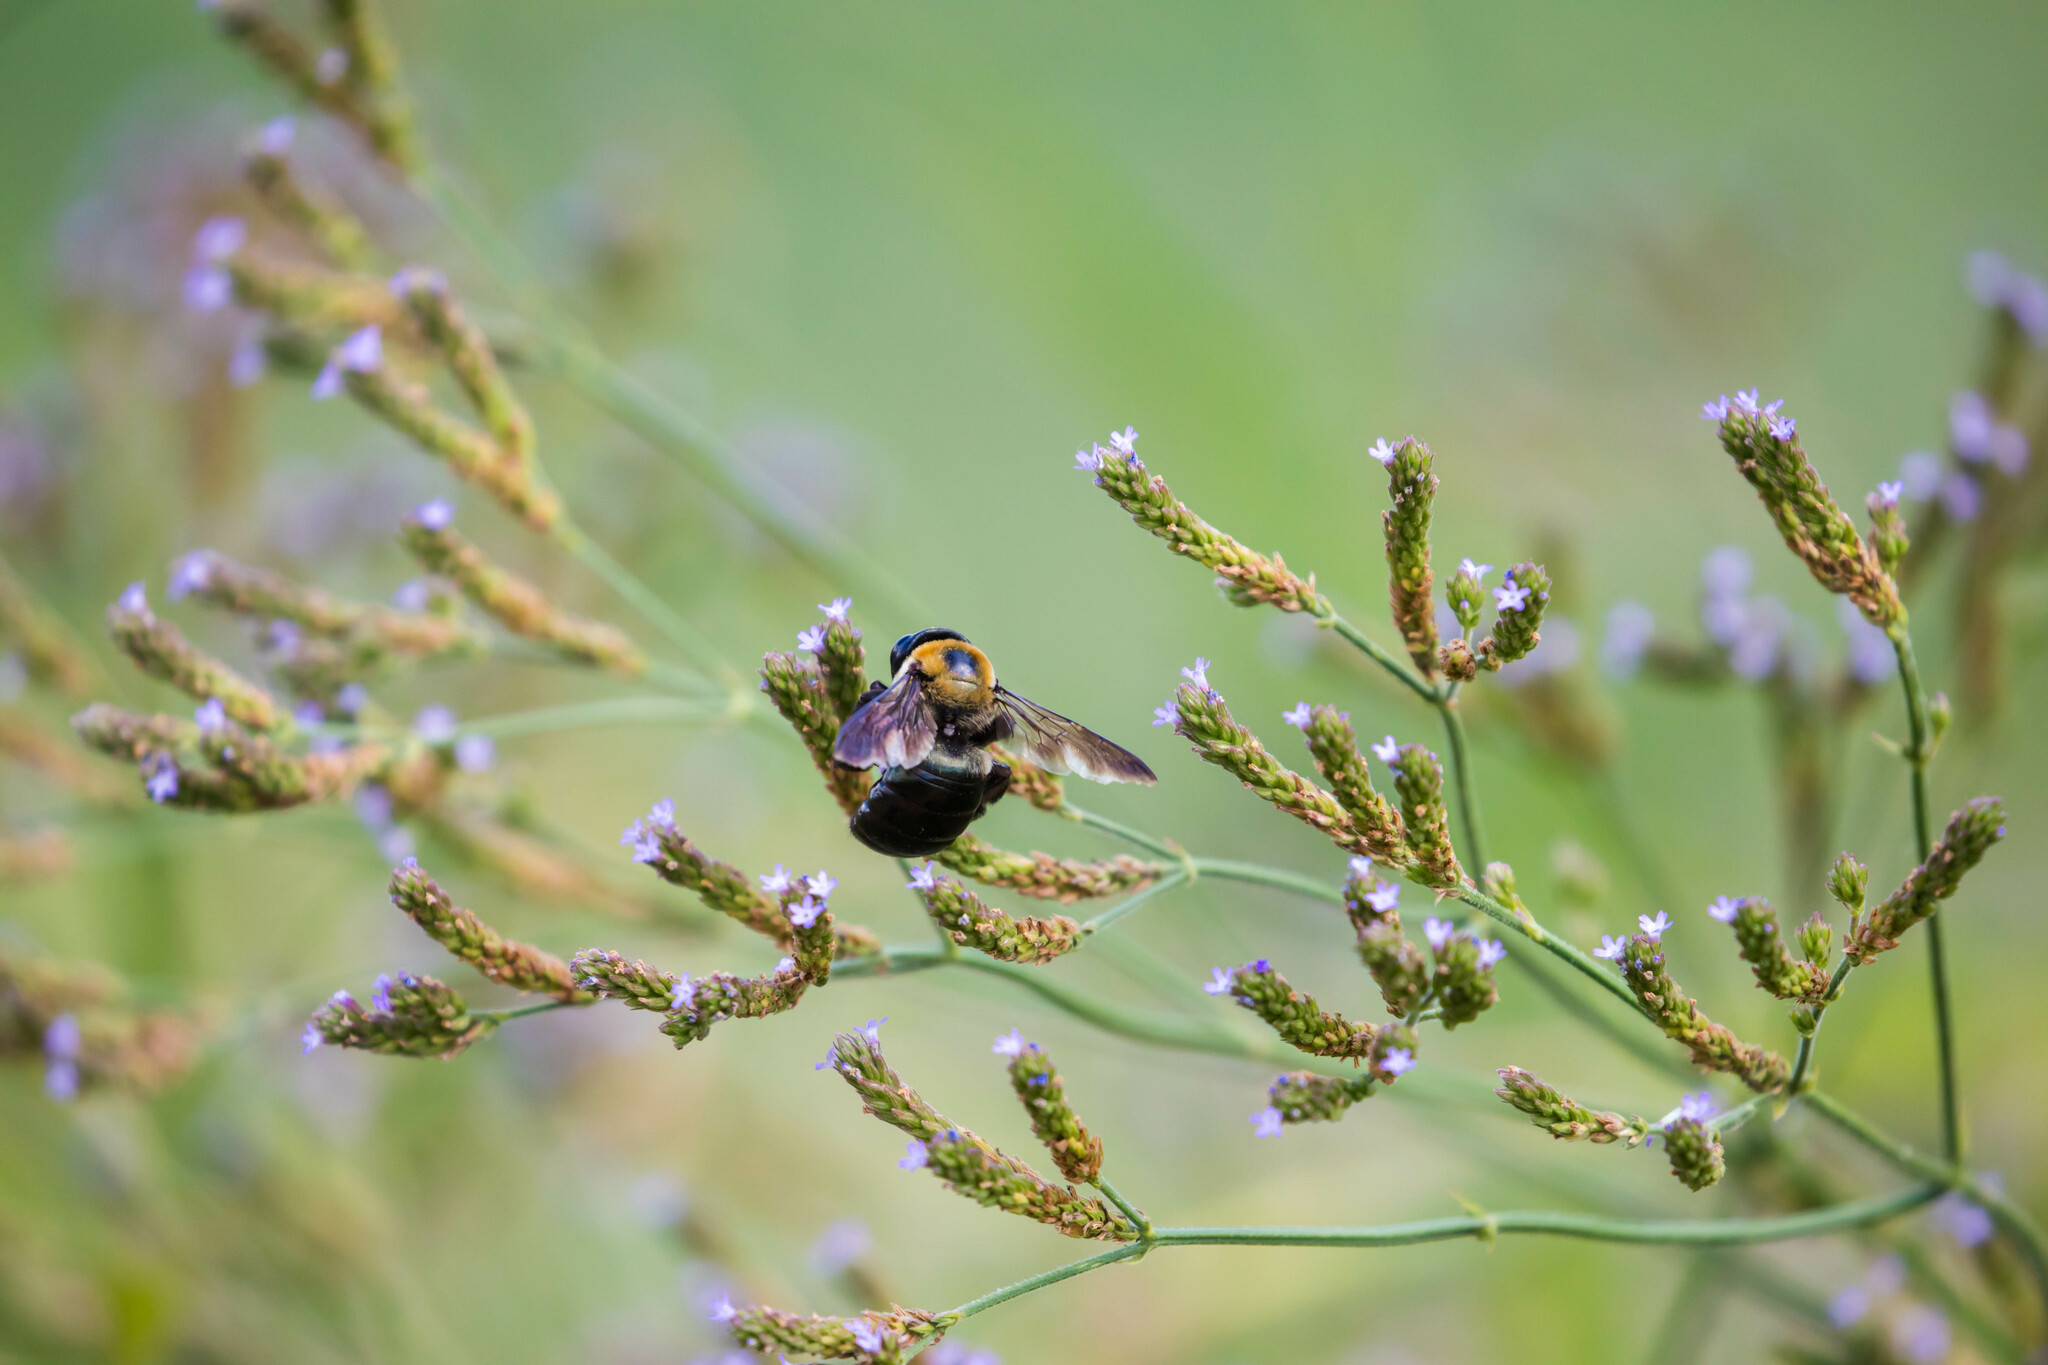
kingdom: Animalia
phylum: Arthropoda
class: Insecta
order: Hymenoptera
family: Apidae
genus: Xylocopa
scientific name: Xylocopa virginica
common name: Carpenter bee
